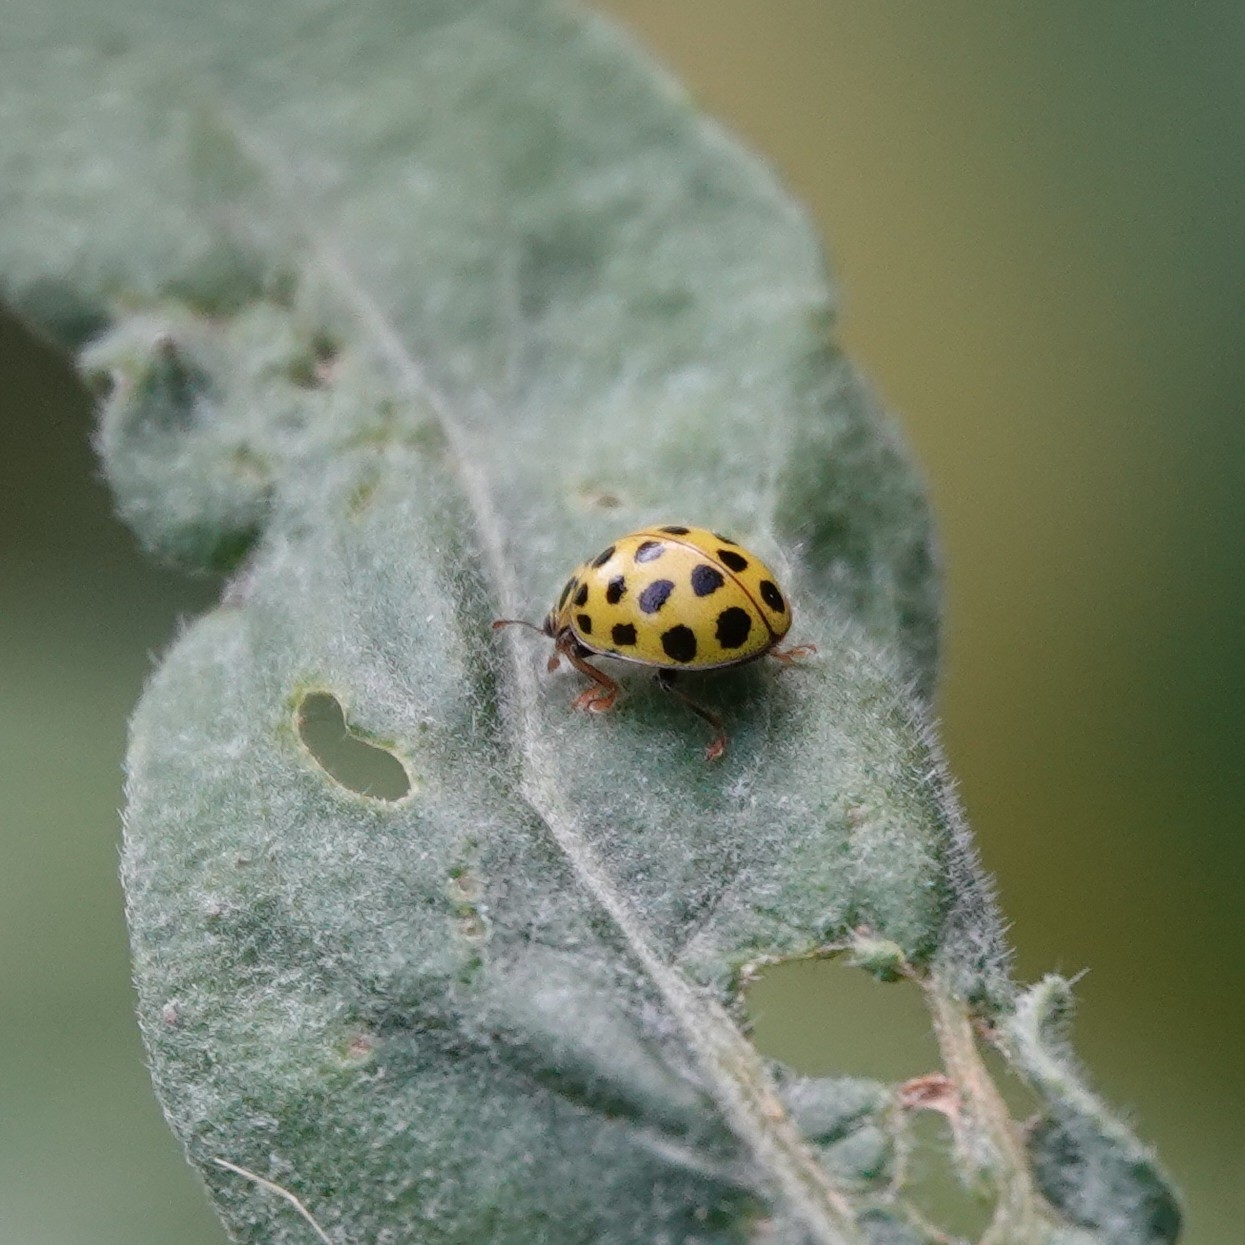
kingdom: Animalia
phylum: Arthropoda
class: Insecta
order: Coleoptera
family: Coccinellidae
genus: Psyllobora
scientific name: Psyllobora vigintiduopunctata
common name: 22-spot ladybird
